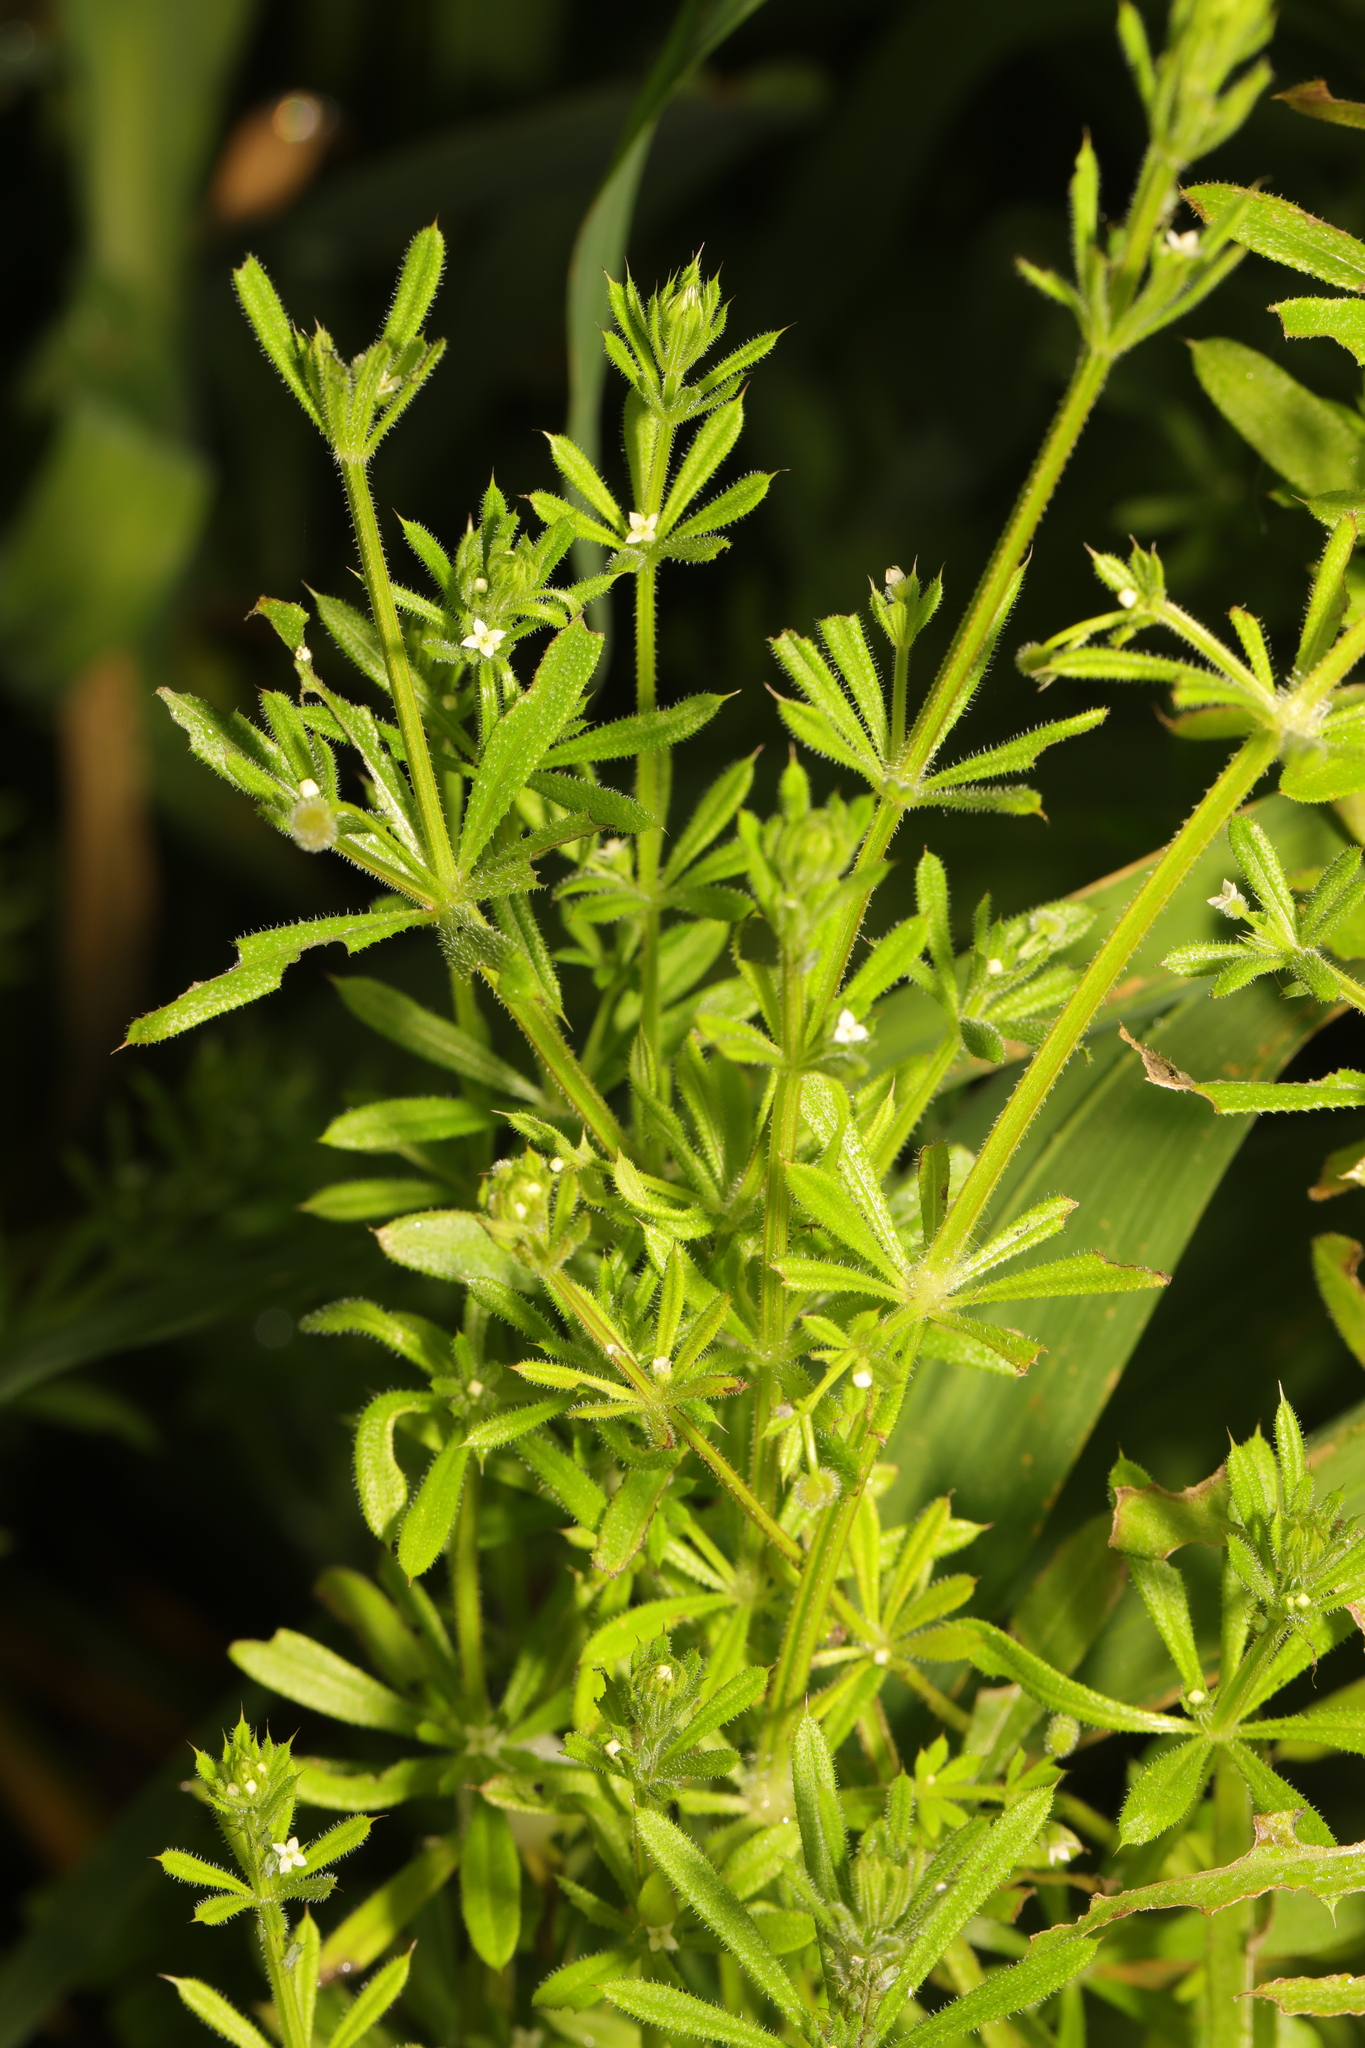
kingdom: Plantae
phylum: Tracheophyta
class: Magnoliopsida
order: Gentianales
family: Rubiaceae
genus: Galium
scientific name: Galium aparine
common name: Cleavers
